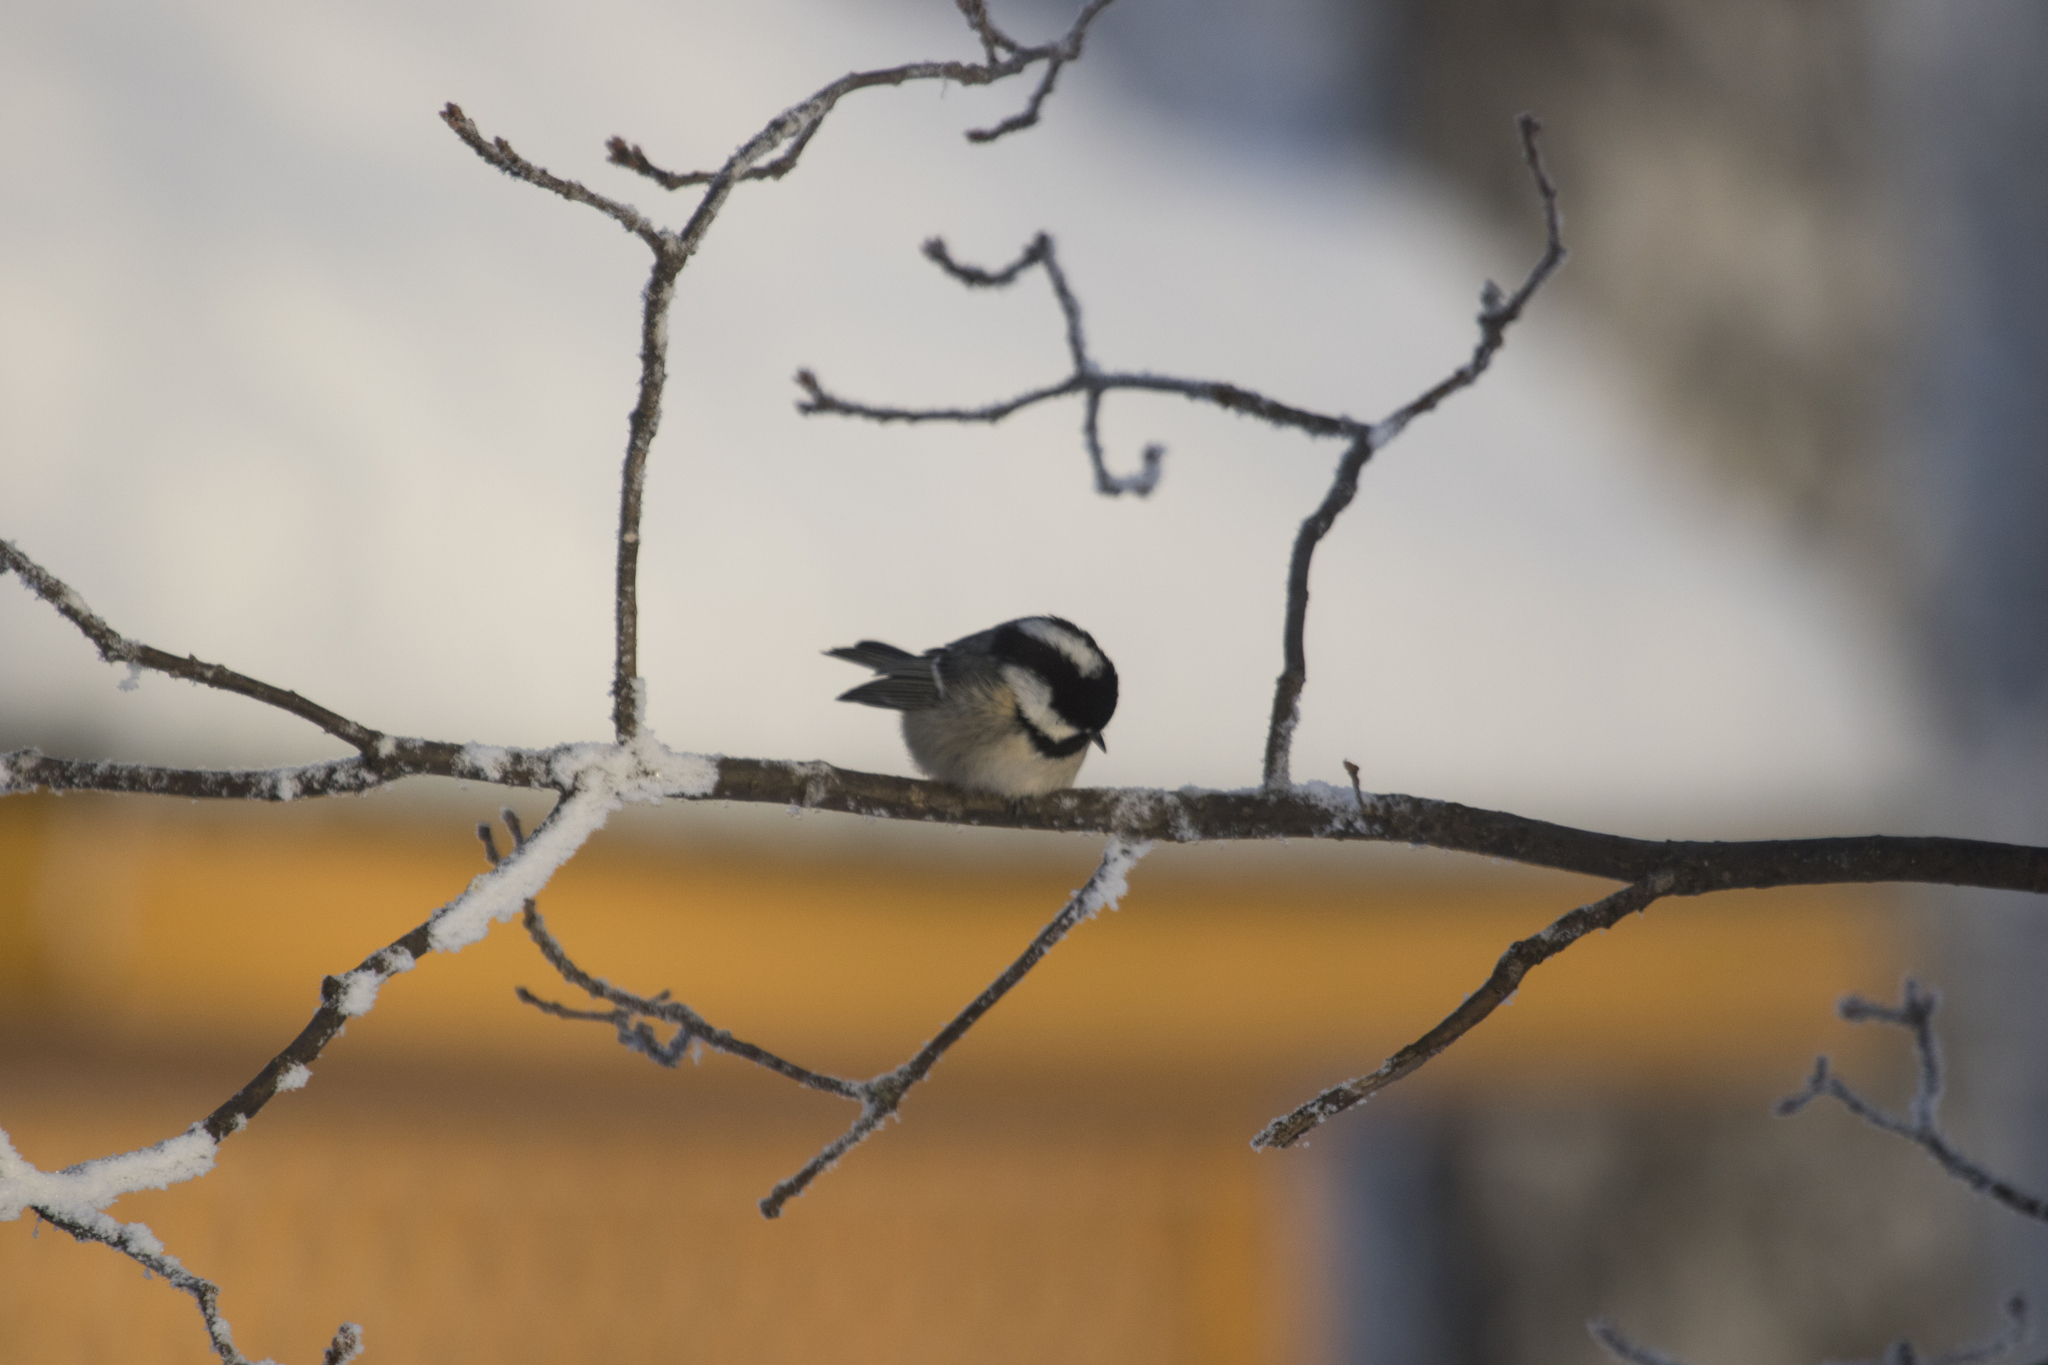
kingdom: Animalia
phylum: Chordata
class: Aves
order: Passeriformes
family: Paridae
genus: Periparus
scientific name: Periparus ater
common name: Coal tit
